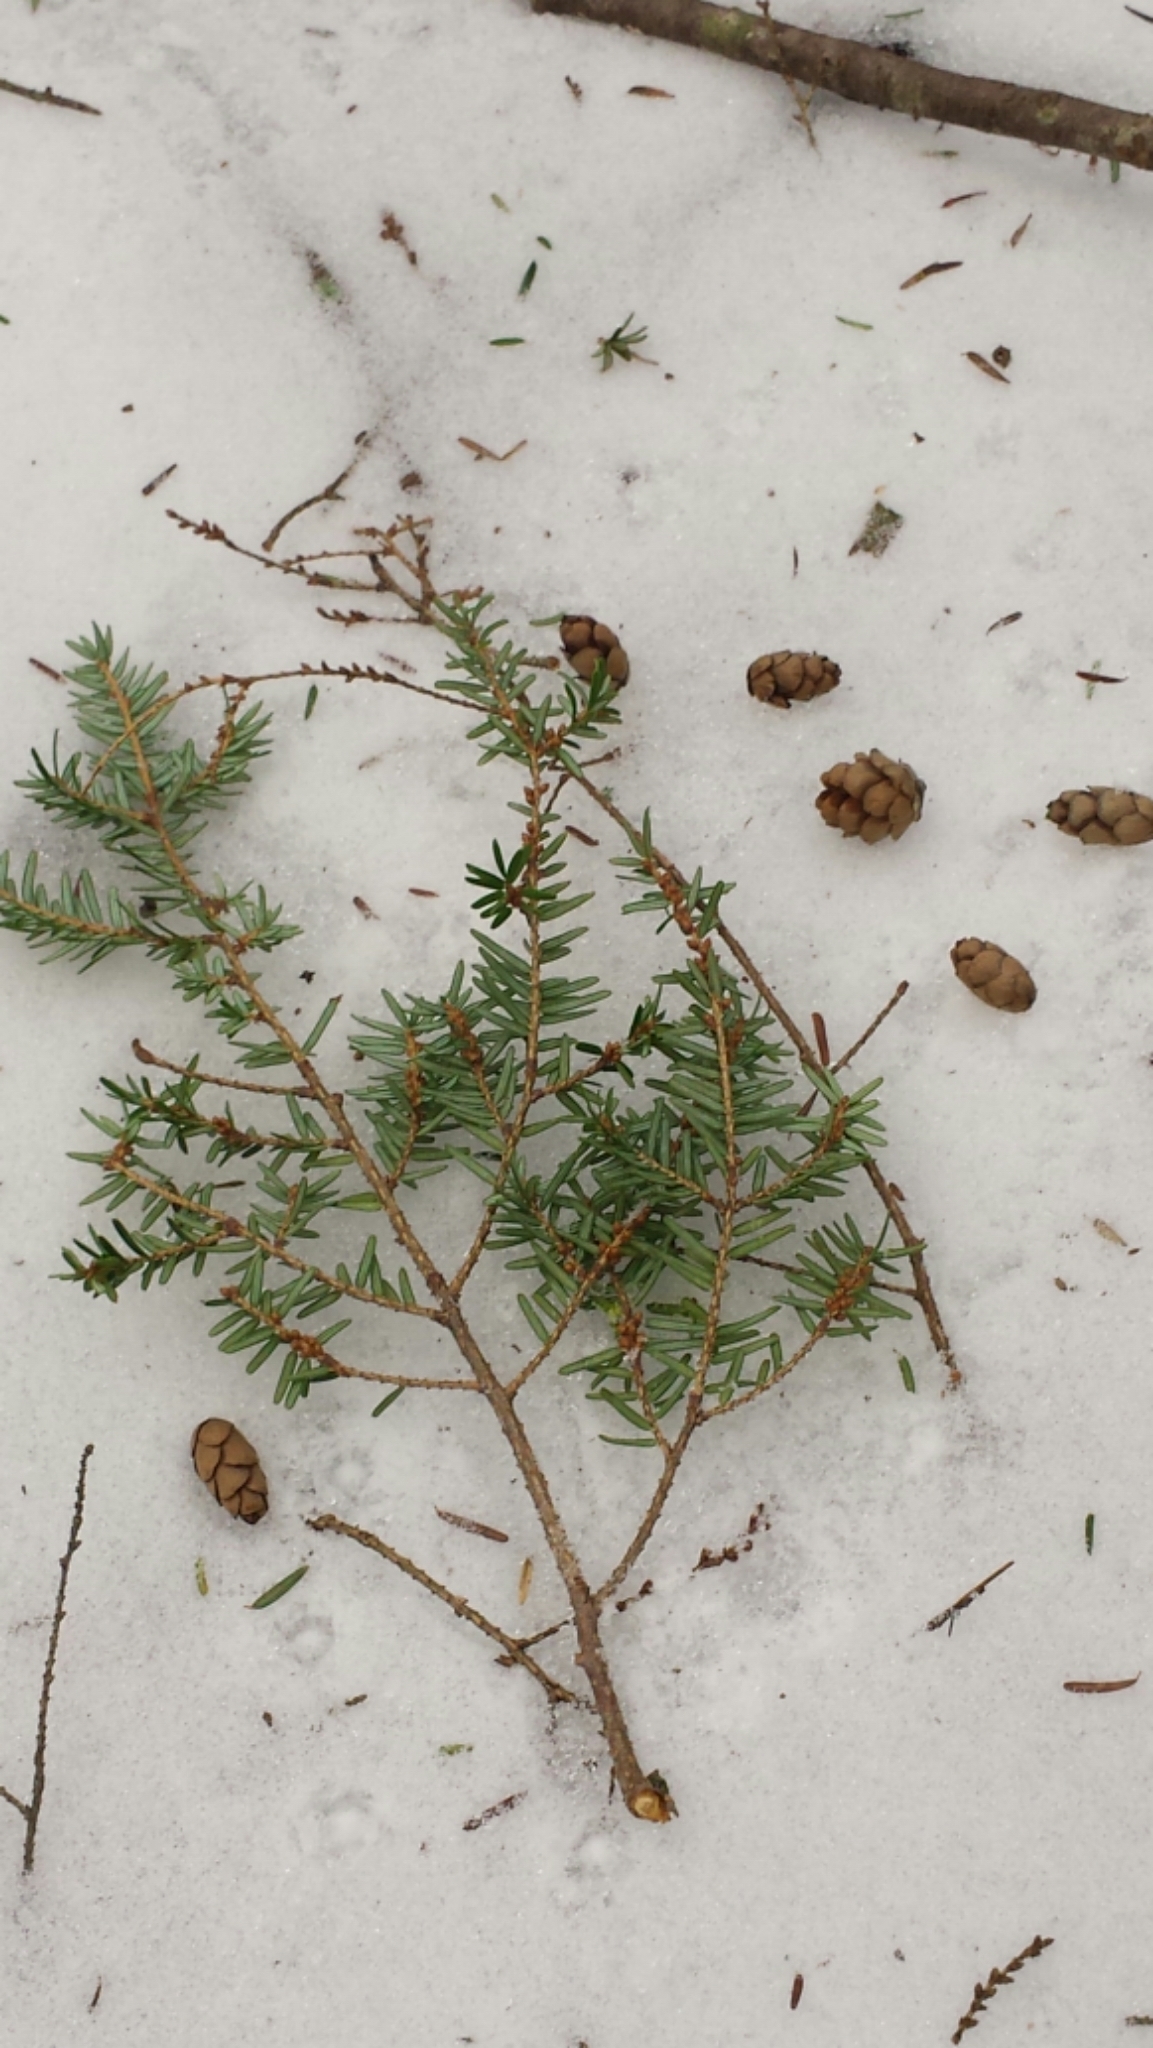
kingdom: Plantae
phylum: Tracheophyta
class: Pinopsida
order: Pinales
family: Pinaceae
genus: Tsuga
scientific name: Tsuga canadensis
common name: Eastern hemlock
